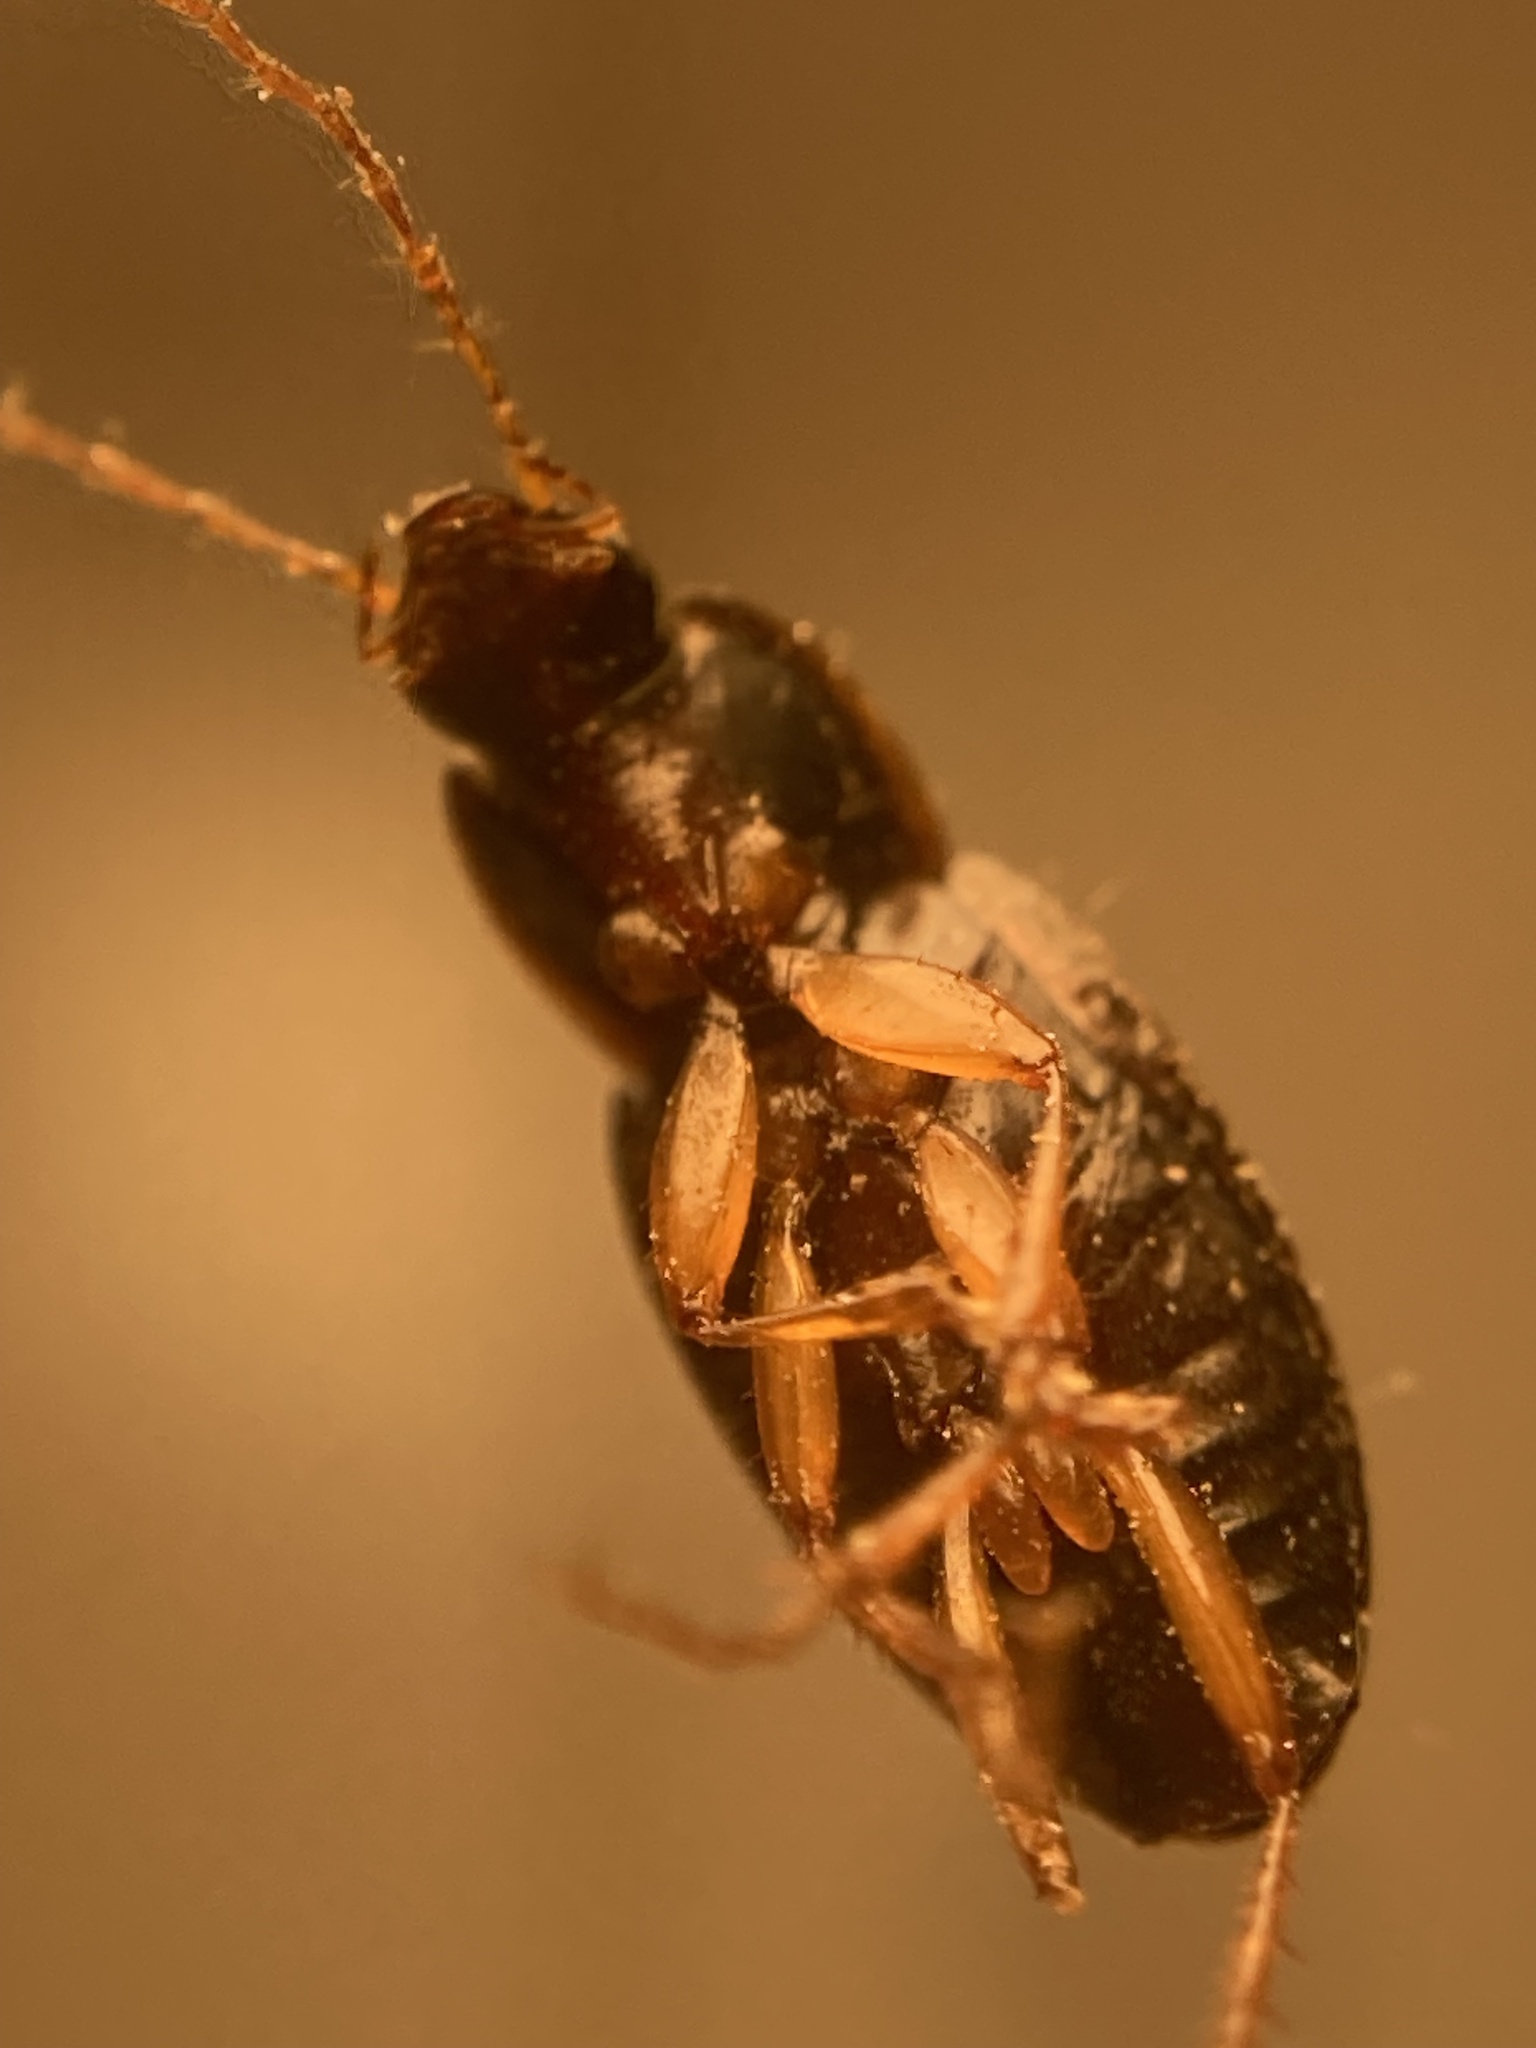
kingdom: Animalia
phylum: Arthropoda
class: Insecta
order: Coleoptera
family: Carabidae
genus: Calathus
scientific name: Calathus opaculus
